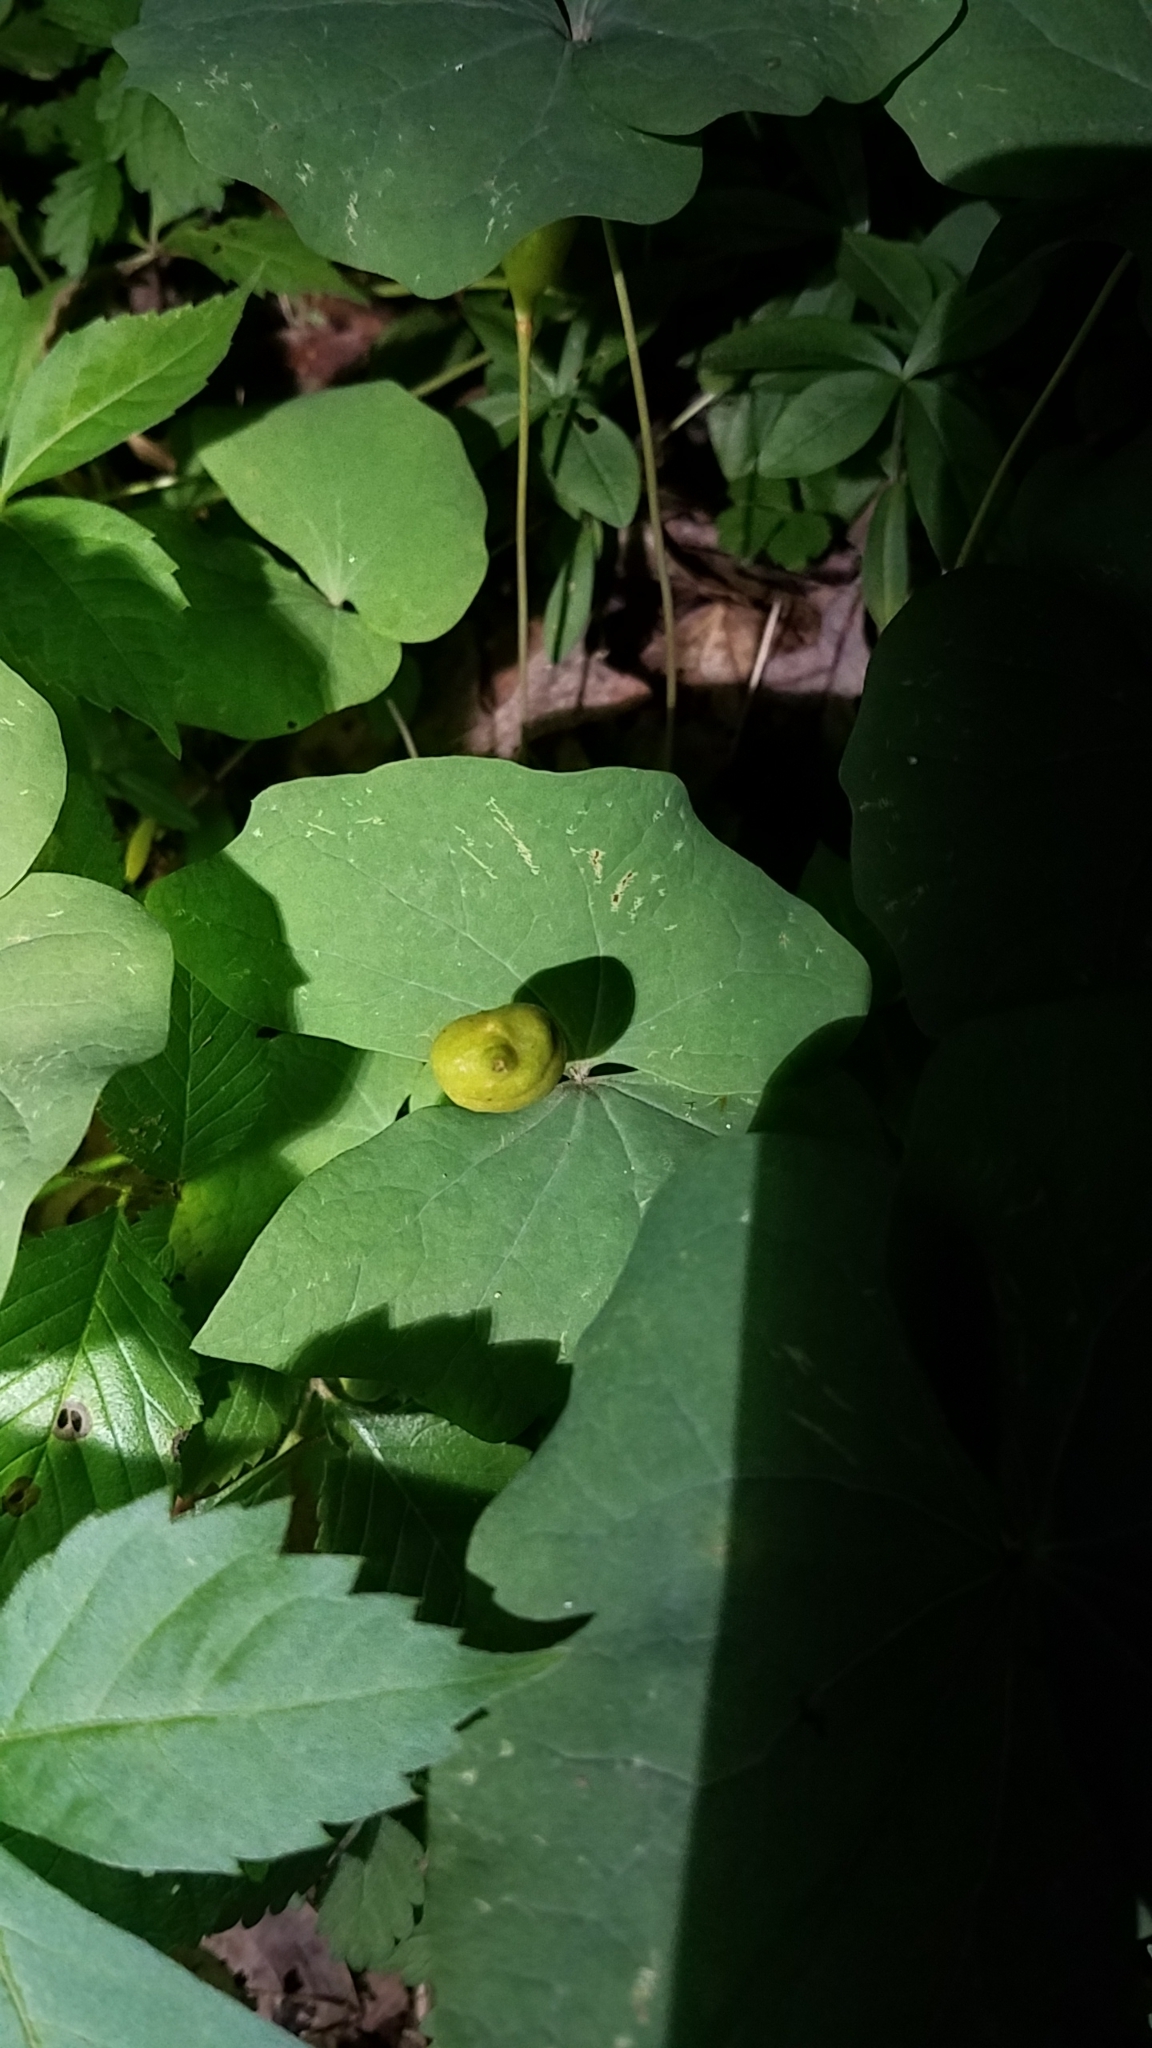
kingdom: Plantae
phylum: Tracheophyta
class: Magnoliopsida
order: Ranunculales
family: Berberidaceae
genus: Jeffersonia
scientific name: Jeffersonia diphylla
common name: Rheumatism-root
